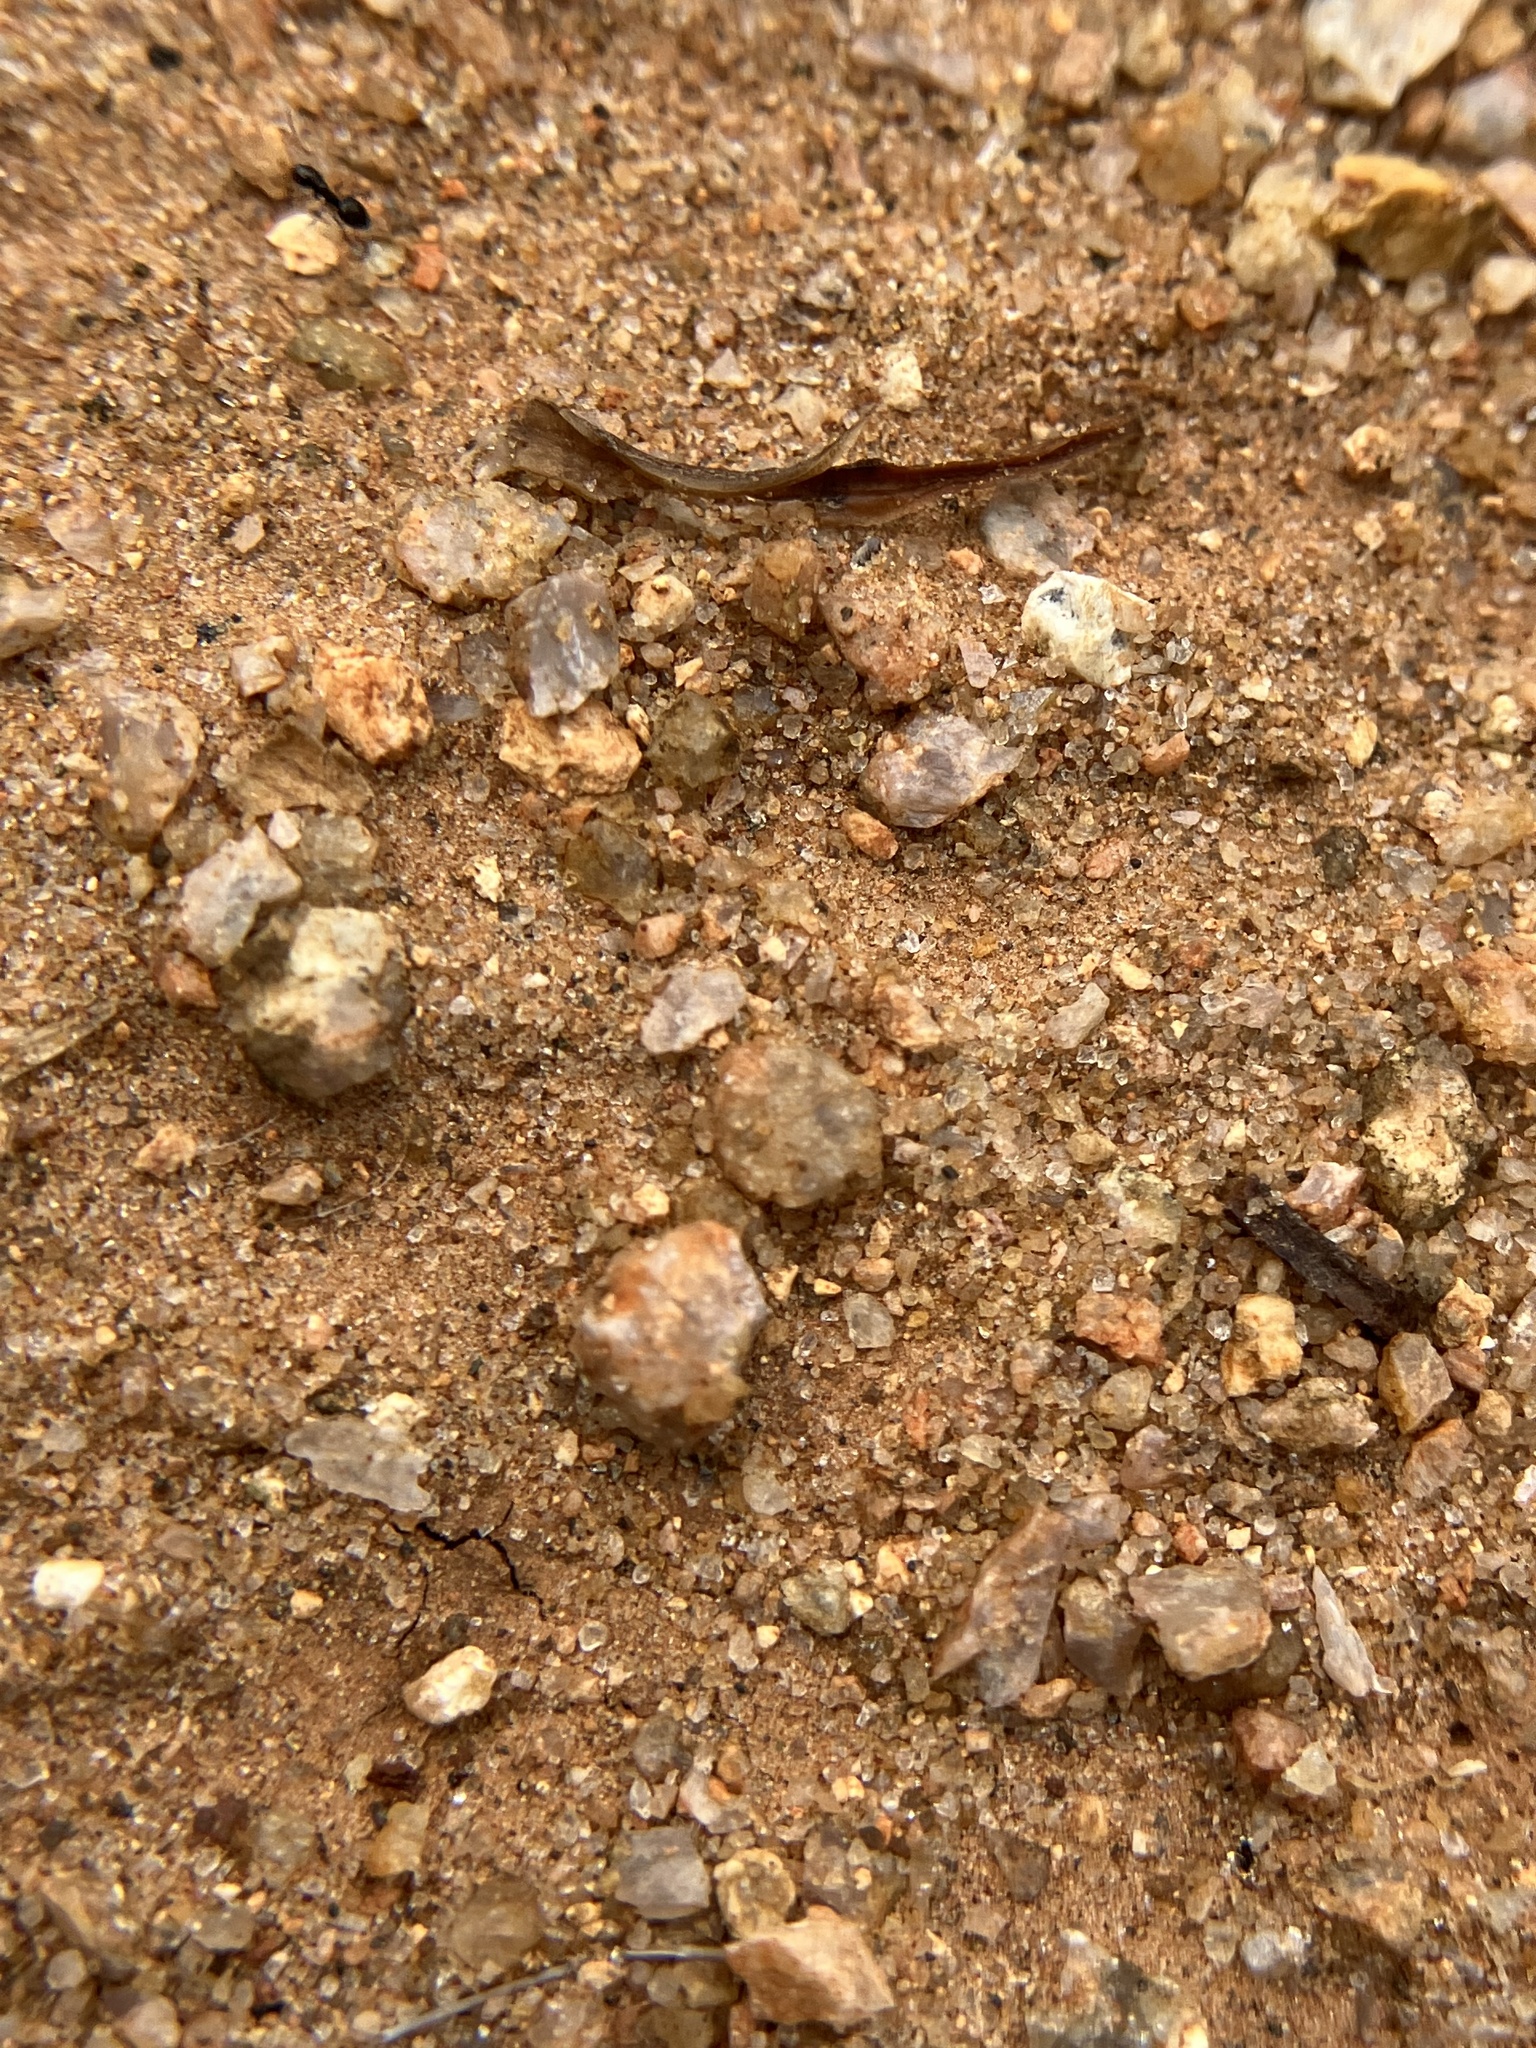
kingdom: Animalia
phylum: Arthropoda
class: Insecta
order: Hymenoptera
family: Formicidae
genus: Lepisiota
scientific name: Lepisiota rothneyi
